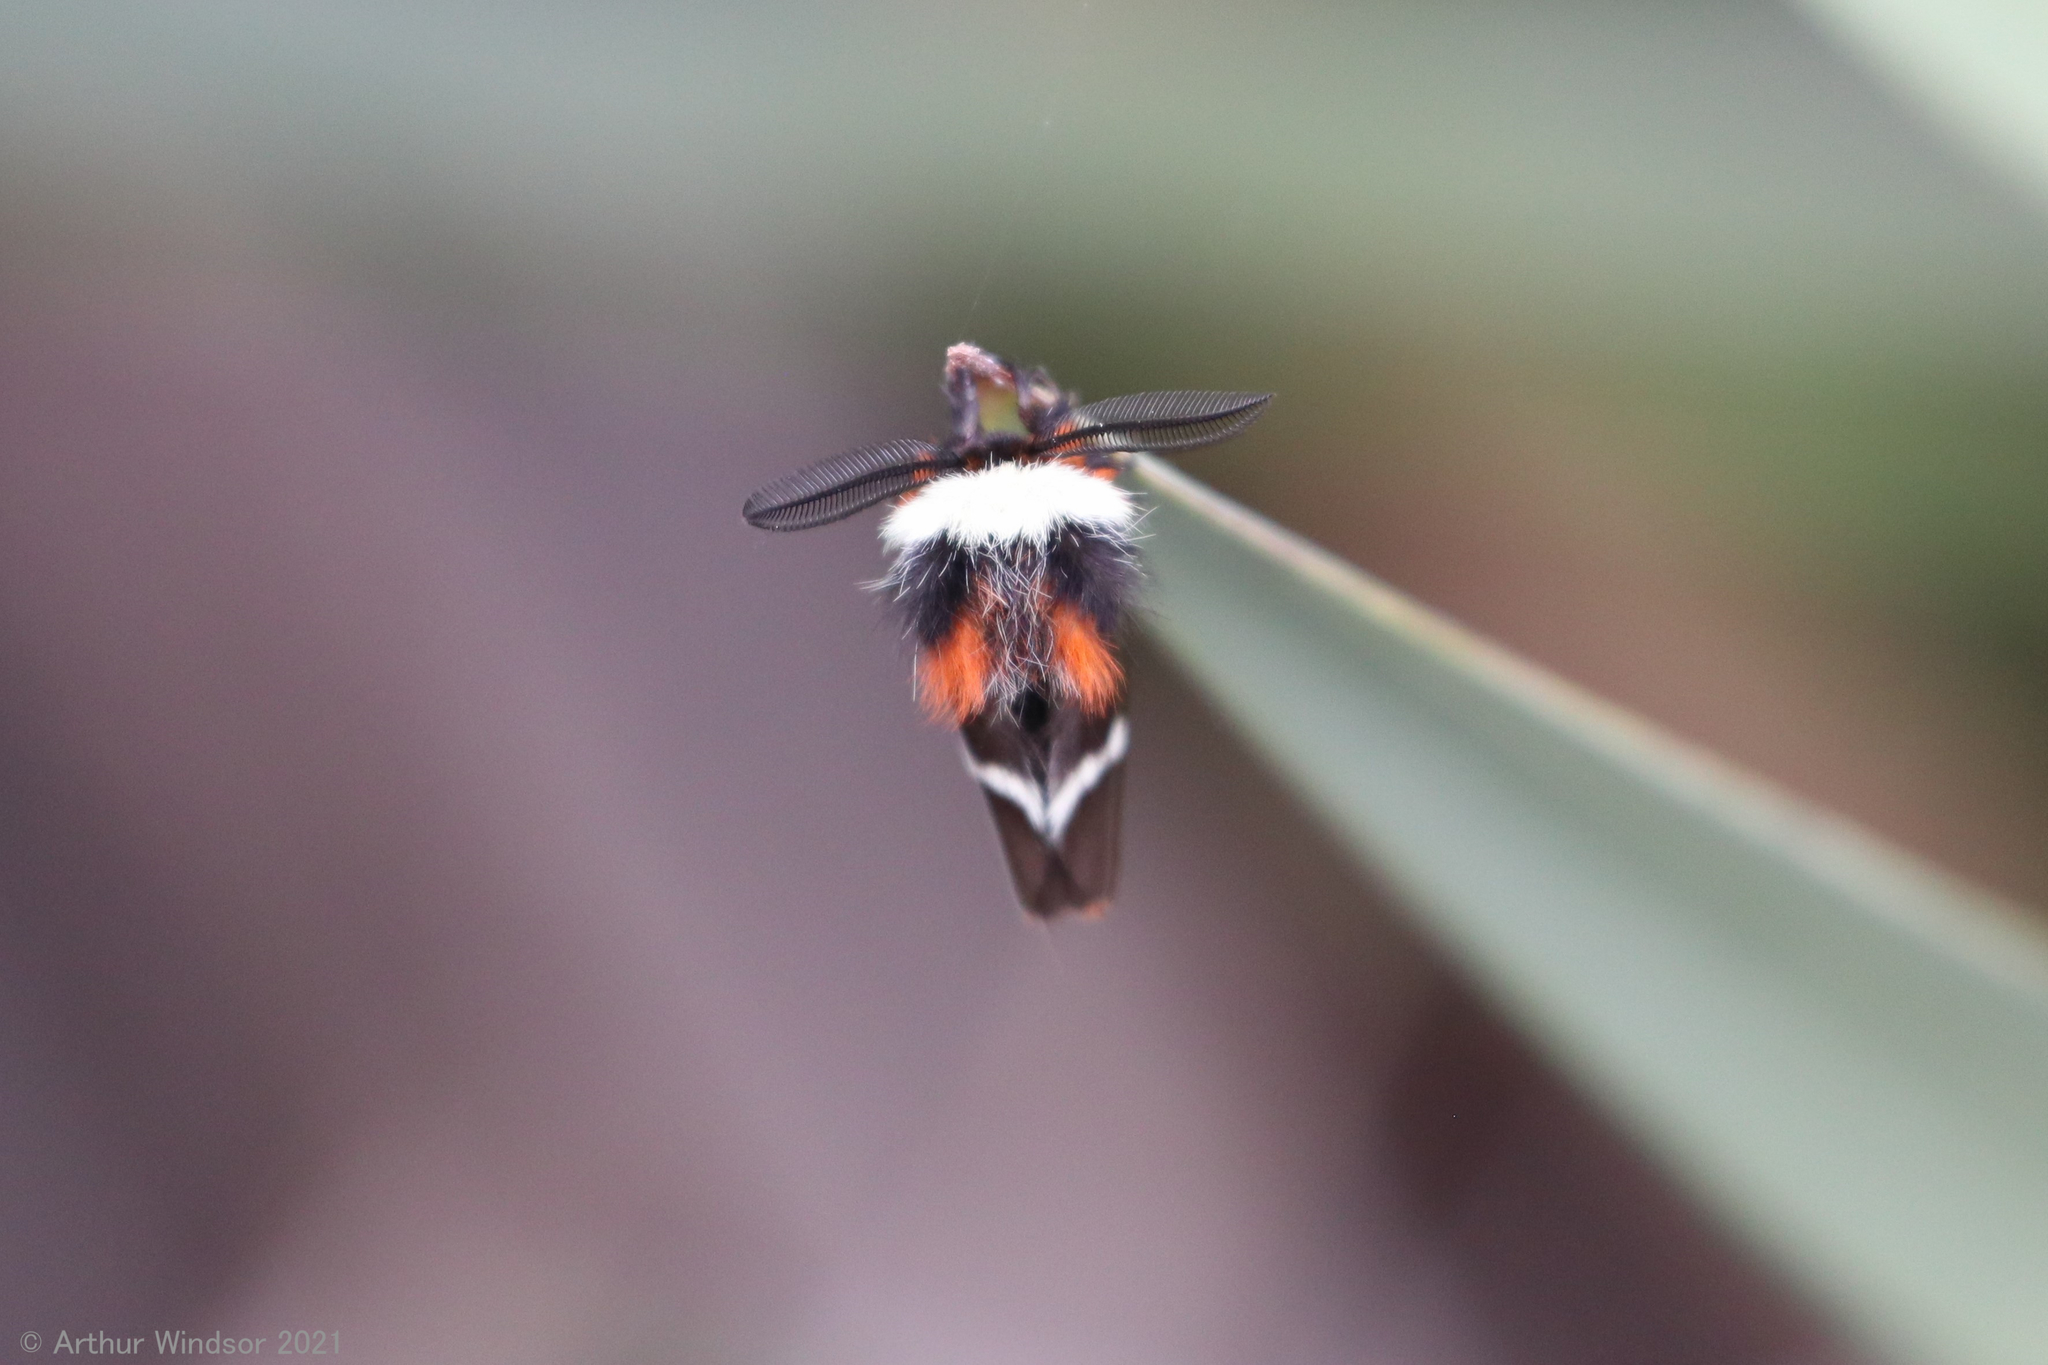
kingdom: Animalia
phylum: Arthropoda
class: Insecta
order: Lepidoptera
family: Saturniidae
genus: Hemileuca
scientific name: Hemileuca maia
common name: Eastern buckmoth
